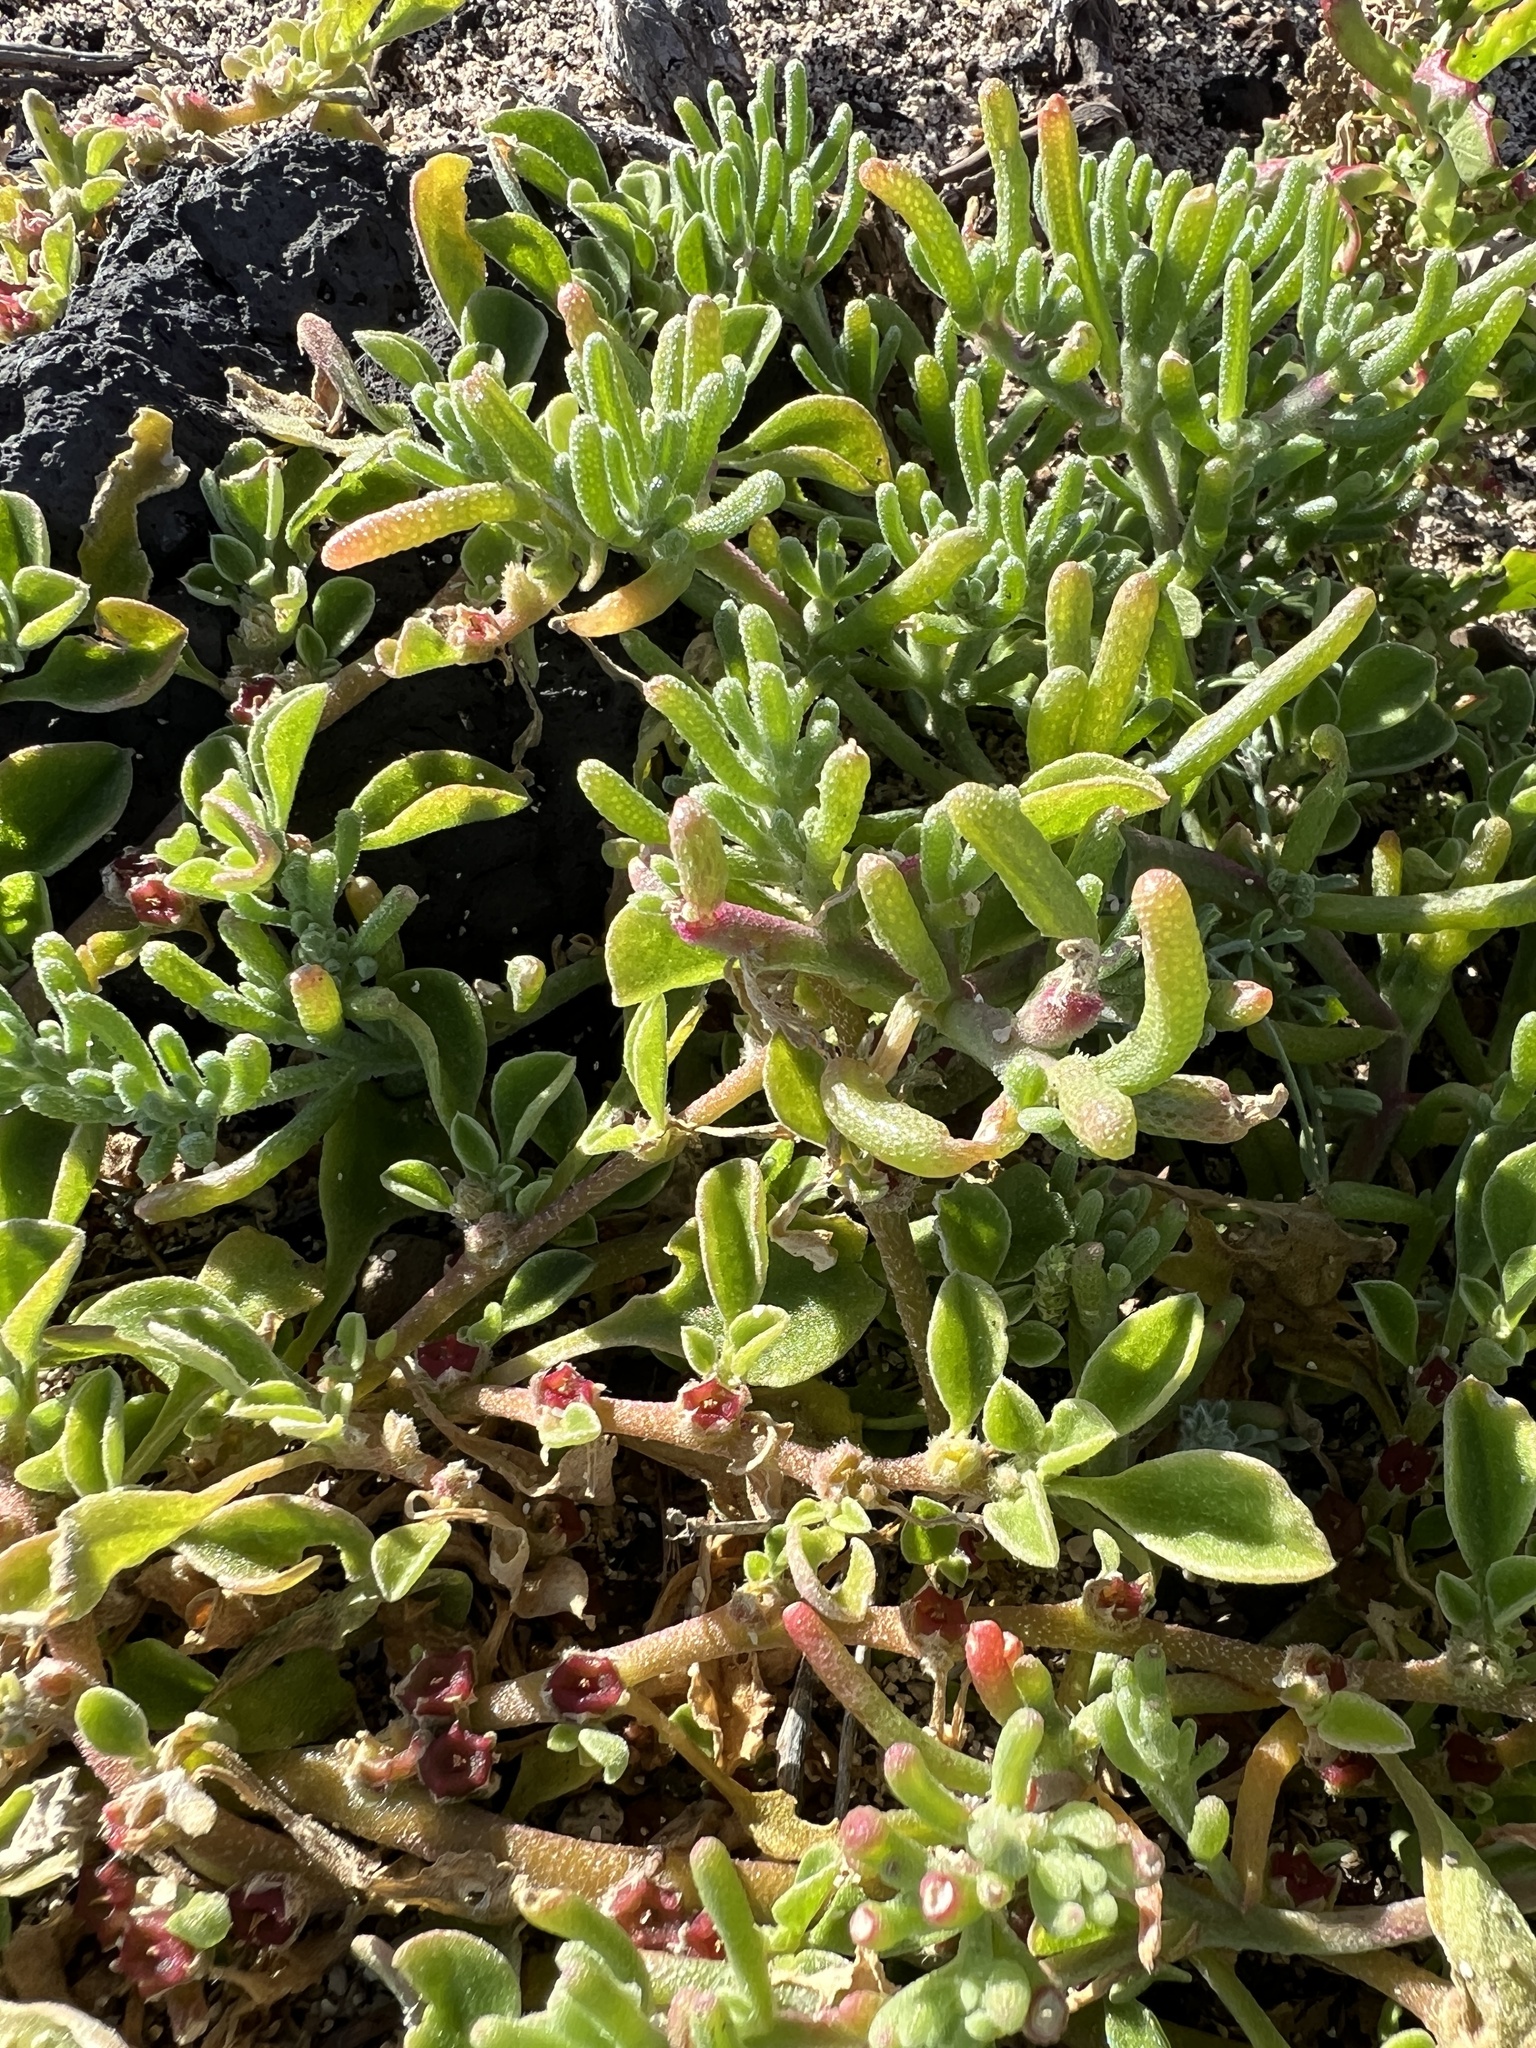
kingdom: Plantae
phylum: Tracheophyta
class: Magnoliopsida
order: Caryophyllales
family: Aizoaceae
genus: Mesembryanthemum
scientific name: Mesembryanthemum nodiflorum
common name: Slenderleaf iceplant
